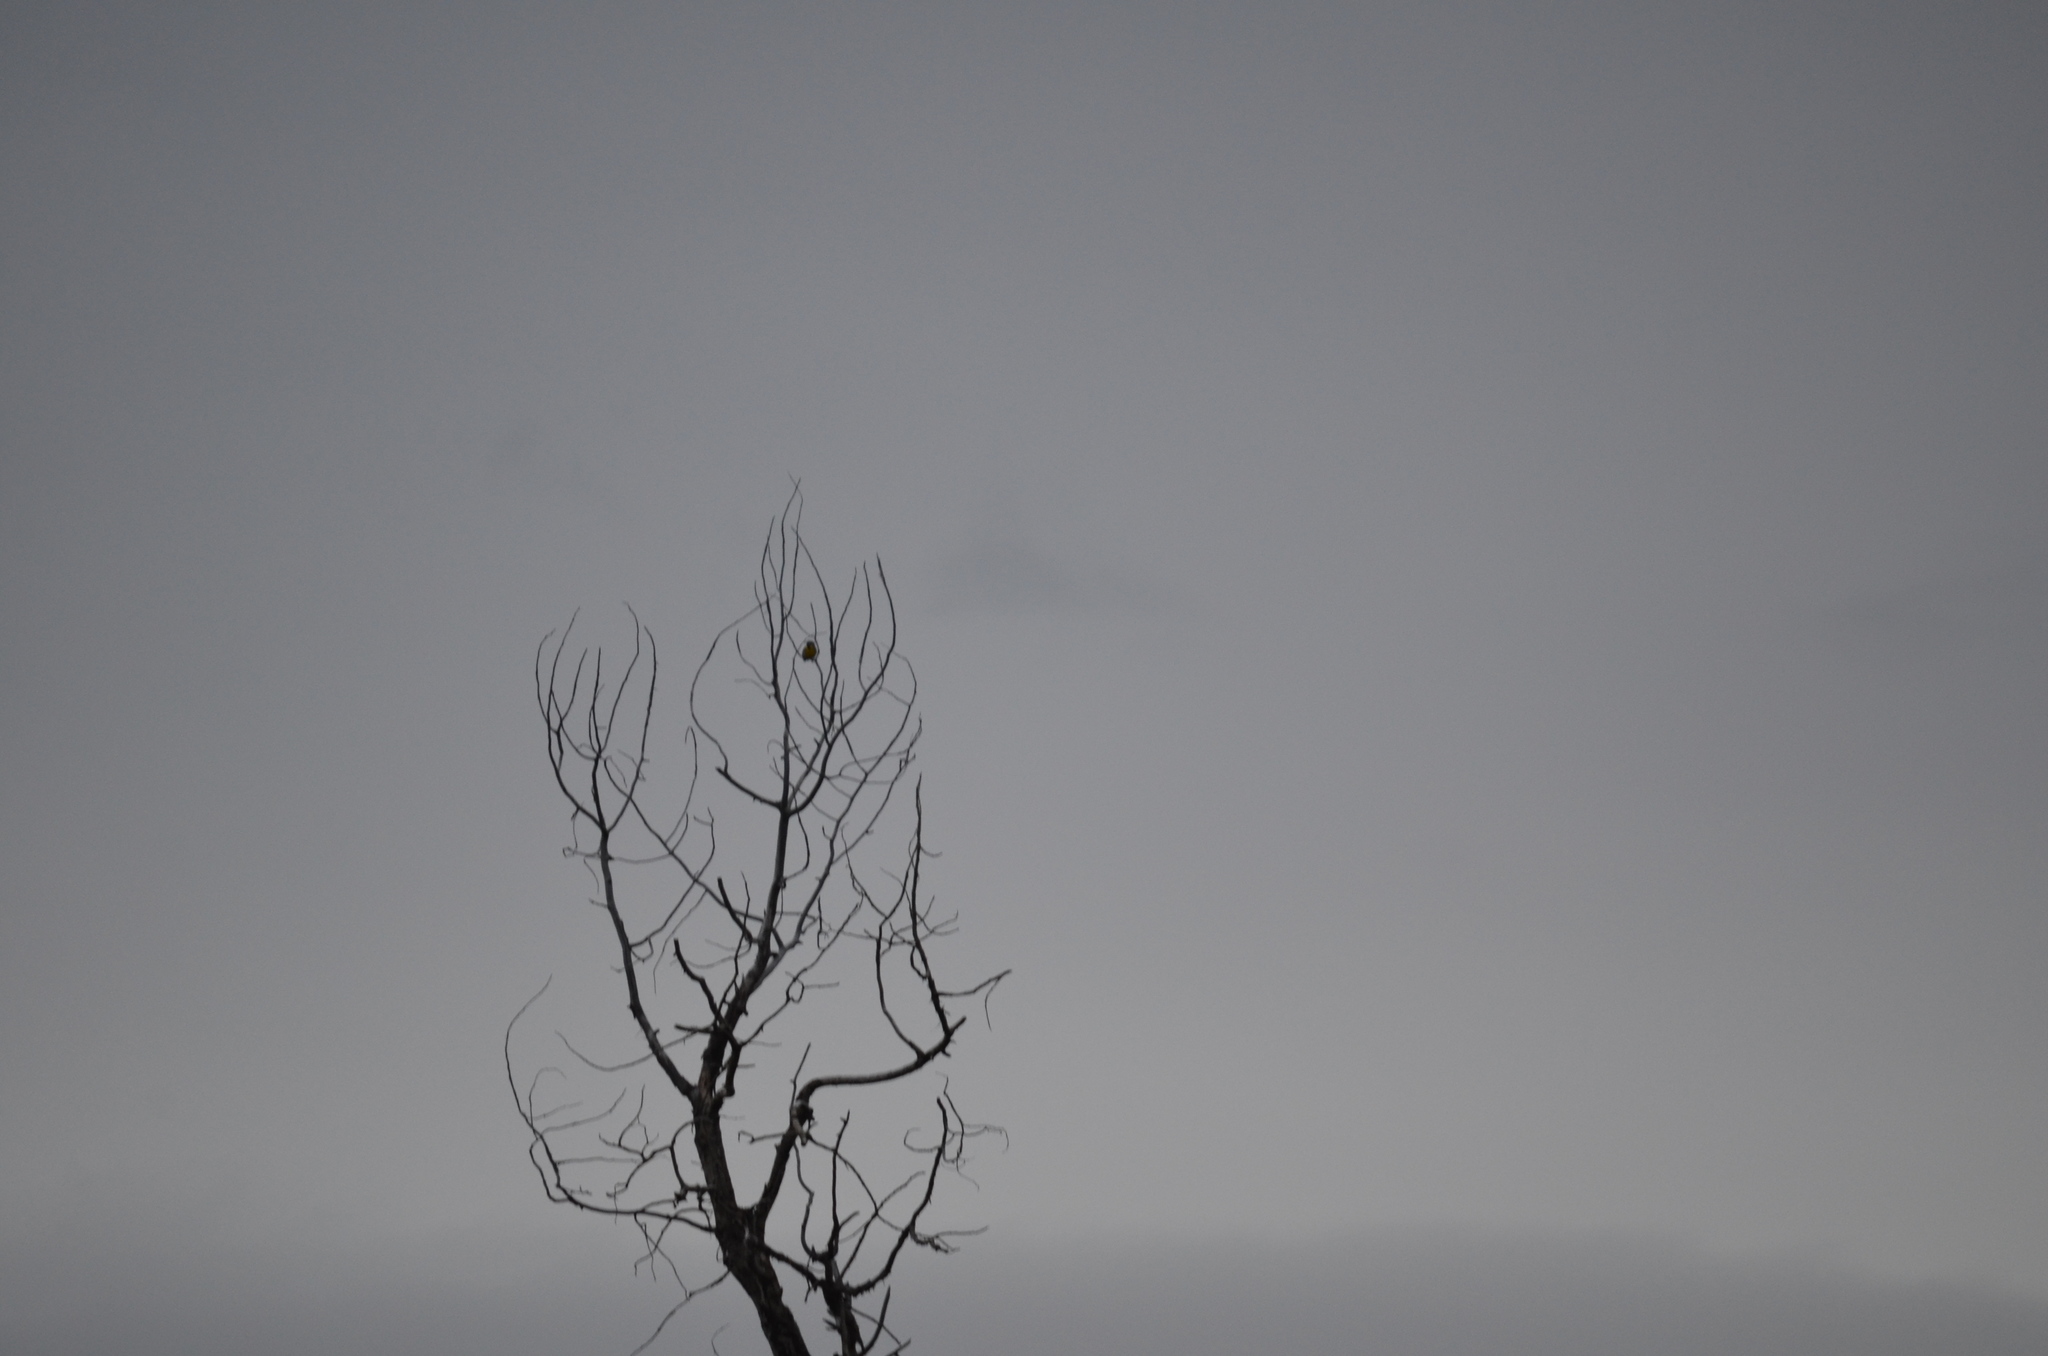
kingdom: Animalia
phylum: Chordata
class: Aves
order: Passeriformes
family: Icteridae
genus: Sturnella
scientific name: Sturnella neglecta
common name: Western meadowlark
